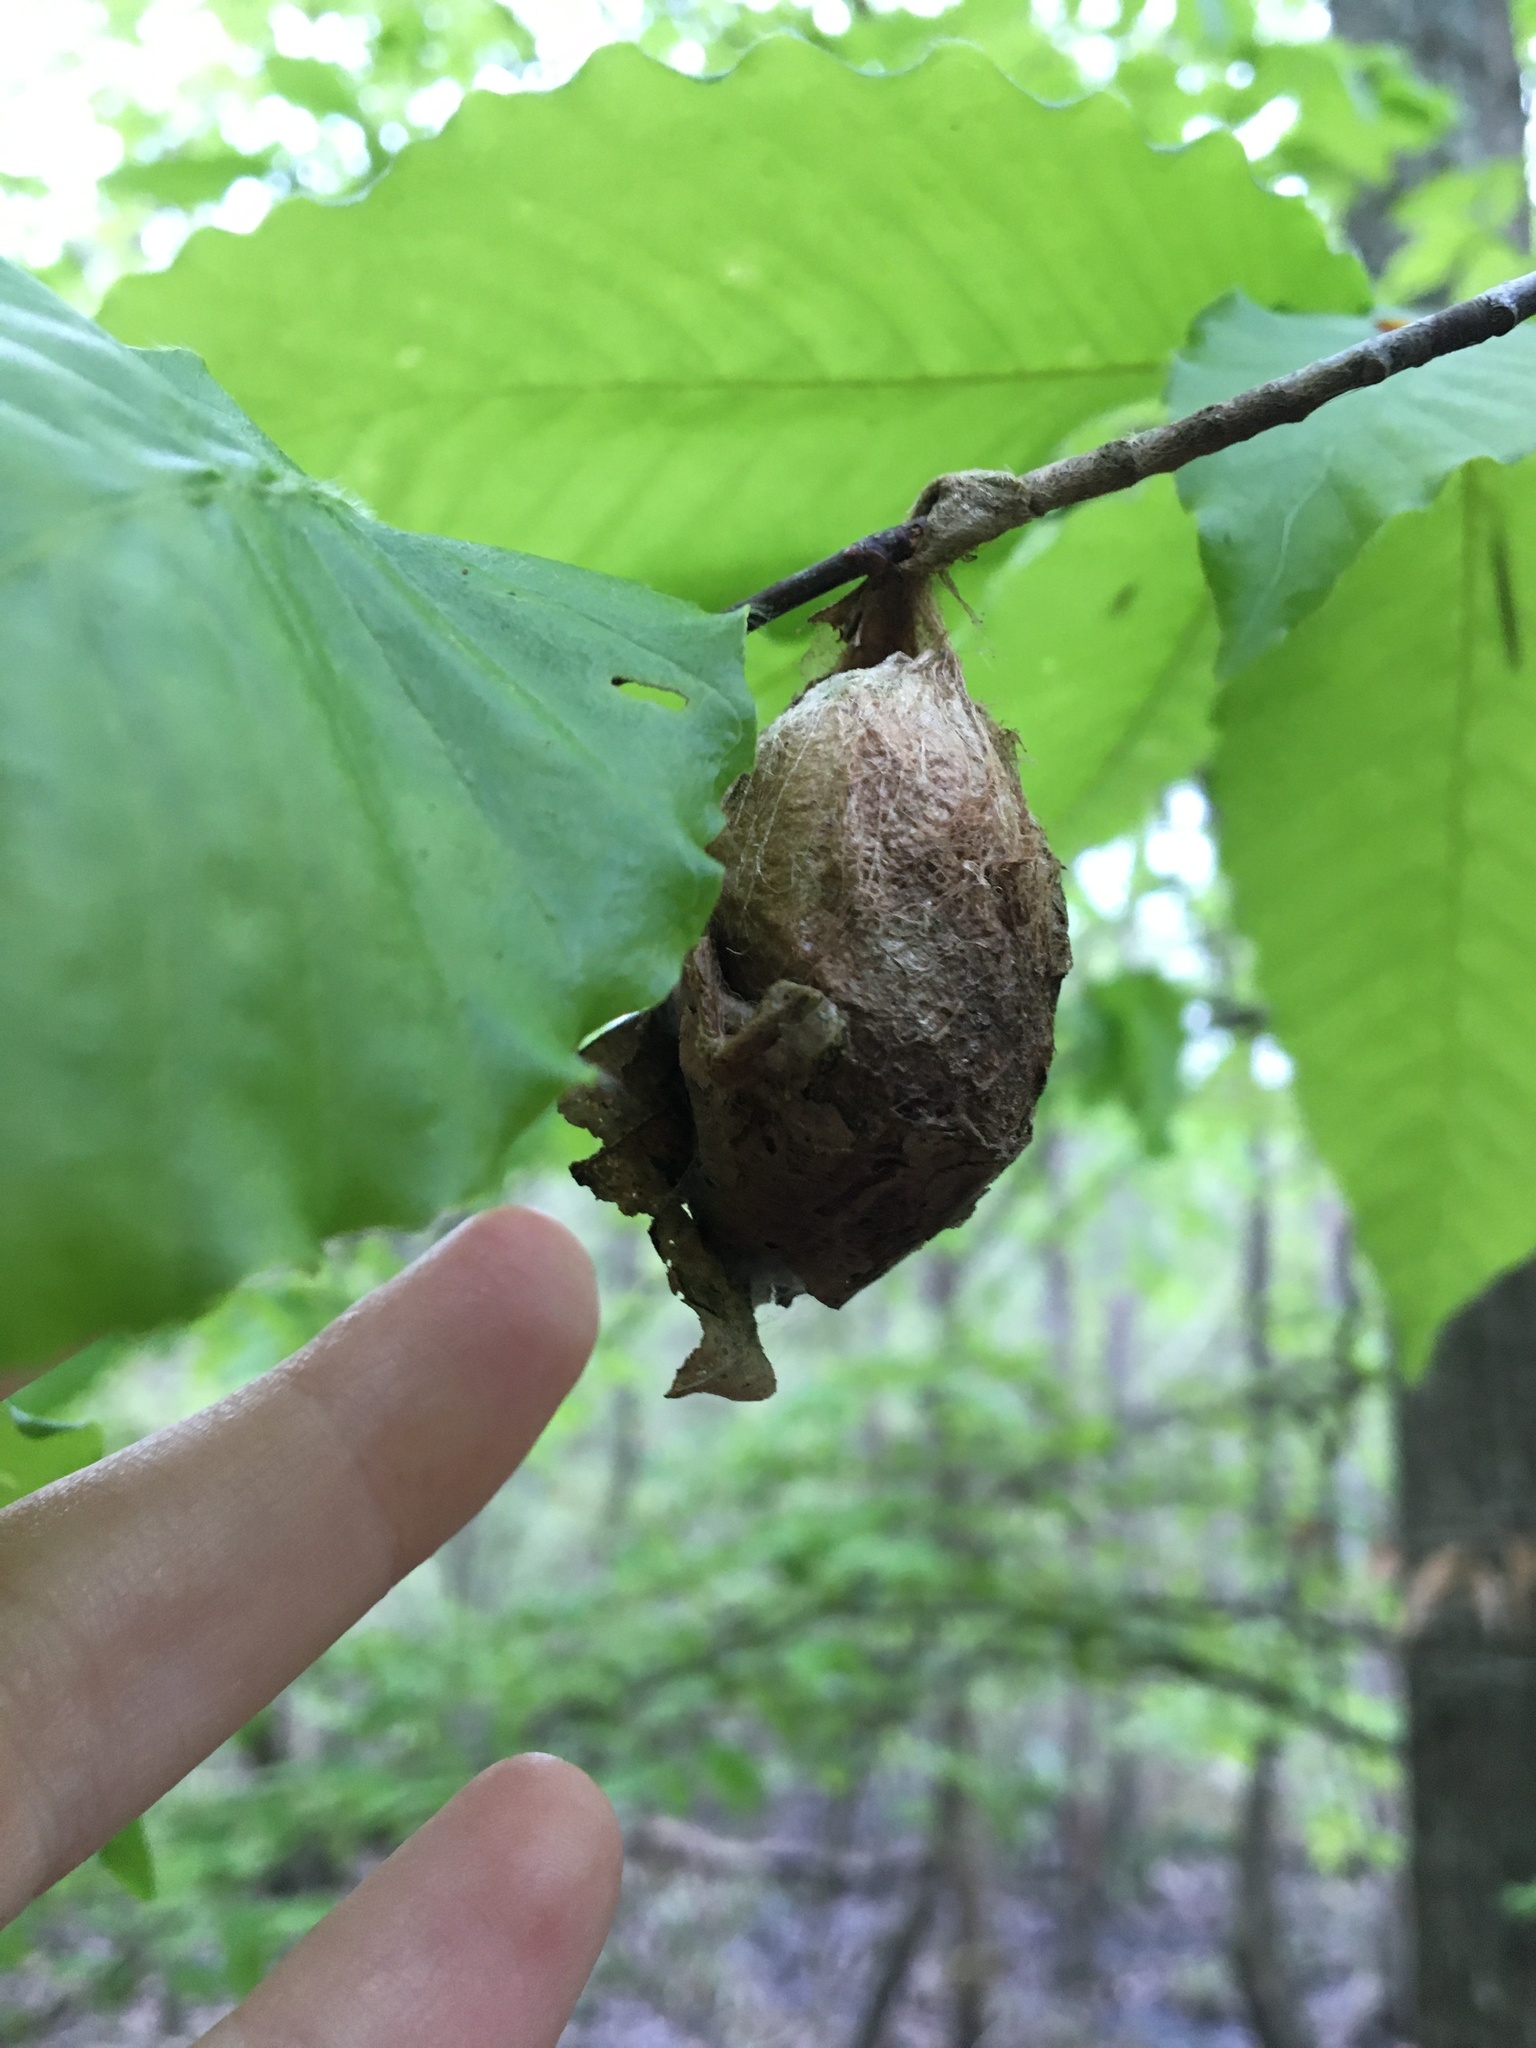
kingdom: Animalia
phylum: Arthropoda
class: Insecta
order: Lepidoptera
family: Saturniidae
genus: Antheraea
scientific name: Antheraea polyphemus
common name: Polyphemus moth
